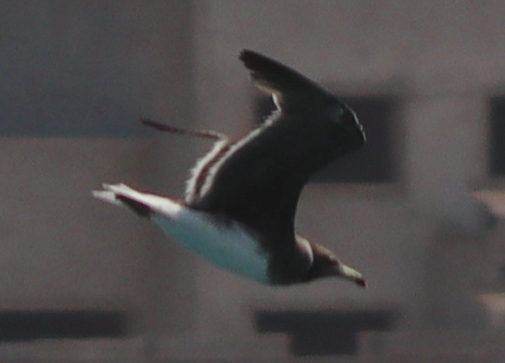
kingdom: Animalia
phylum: Chordata
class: Aves
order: Charadriiformes
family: Laridae
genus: Ichthyaetus
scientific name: Ichthyaetus hemprichii
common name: Sooty gull
